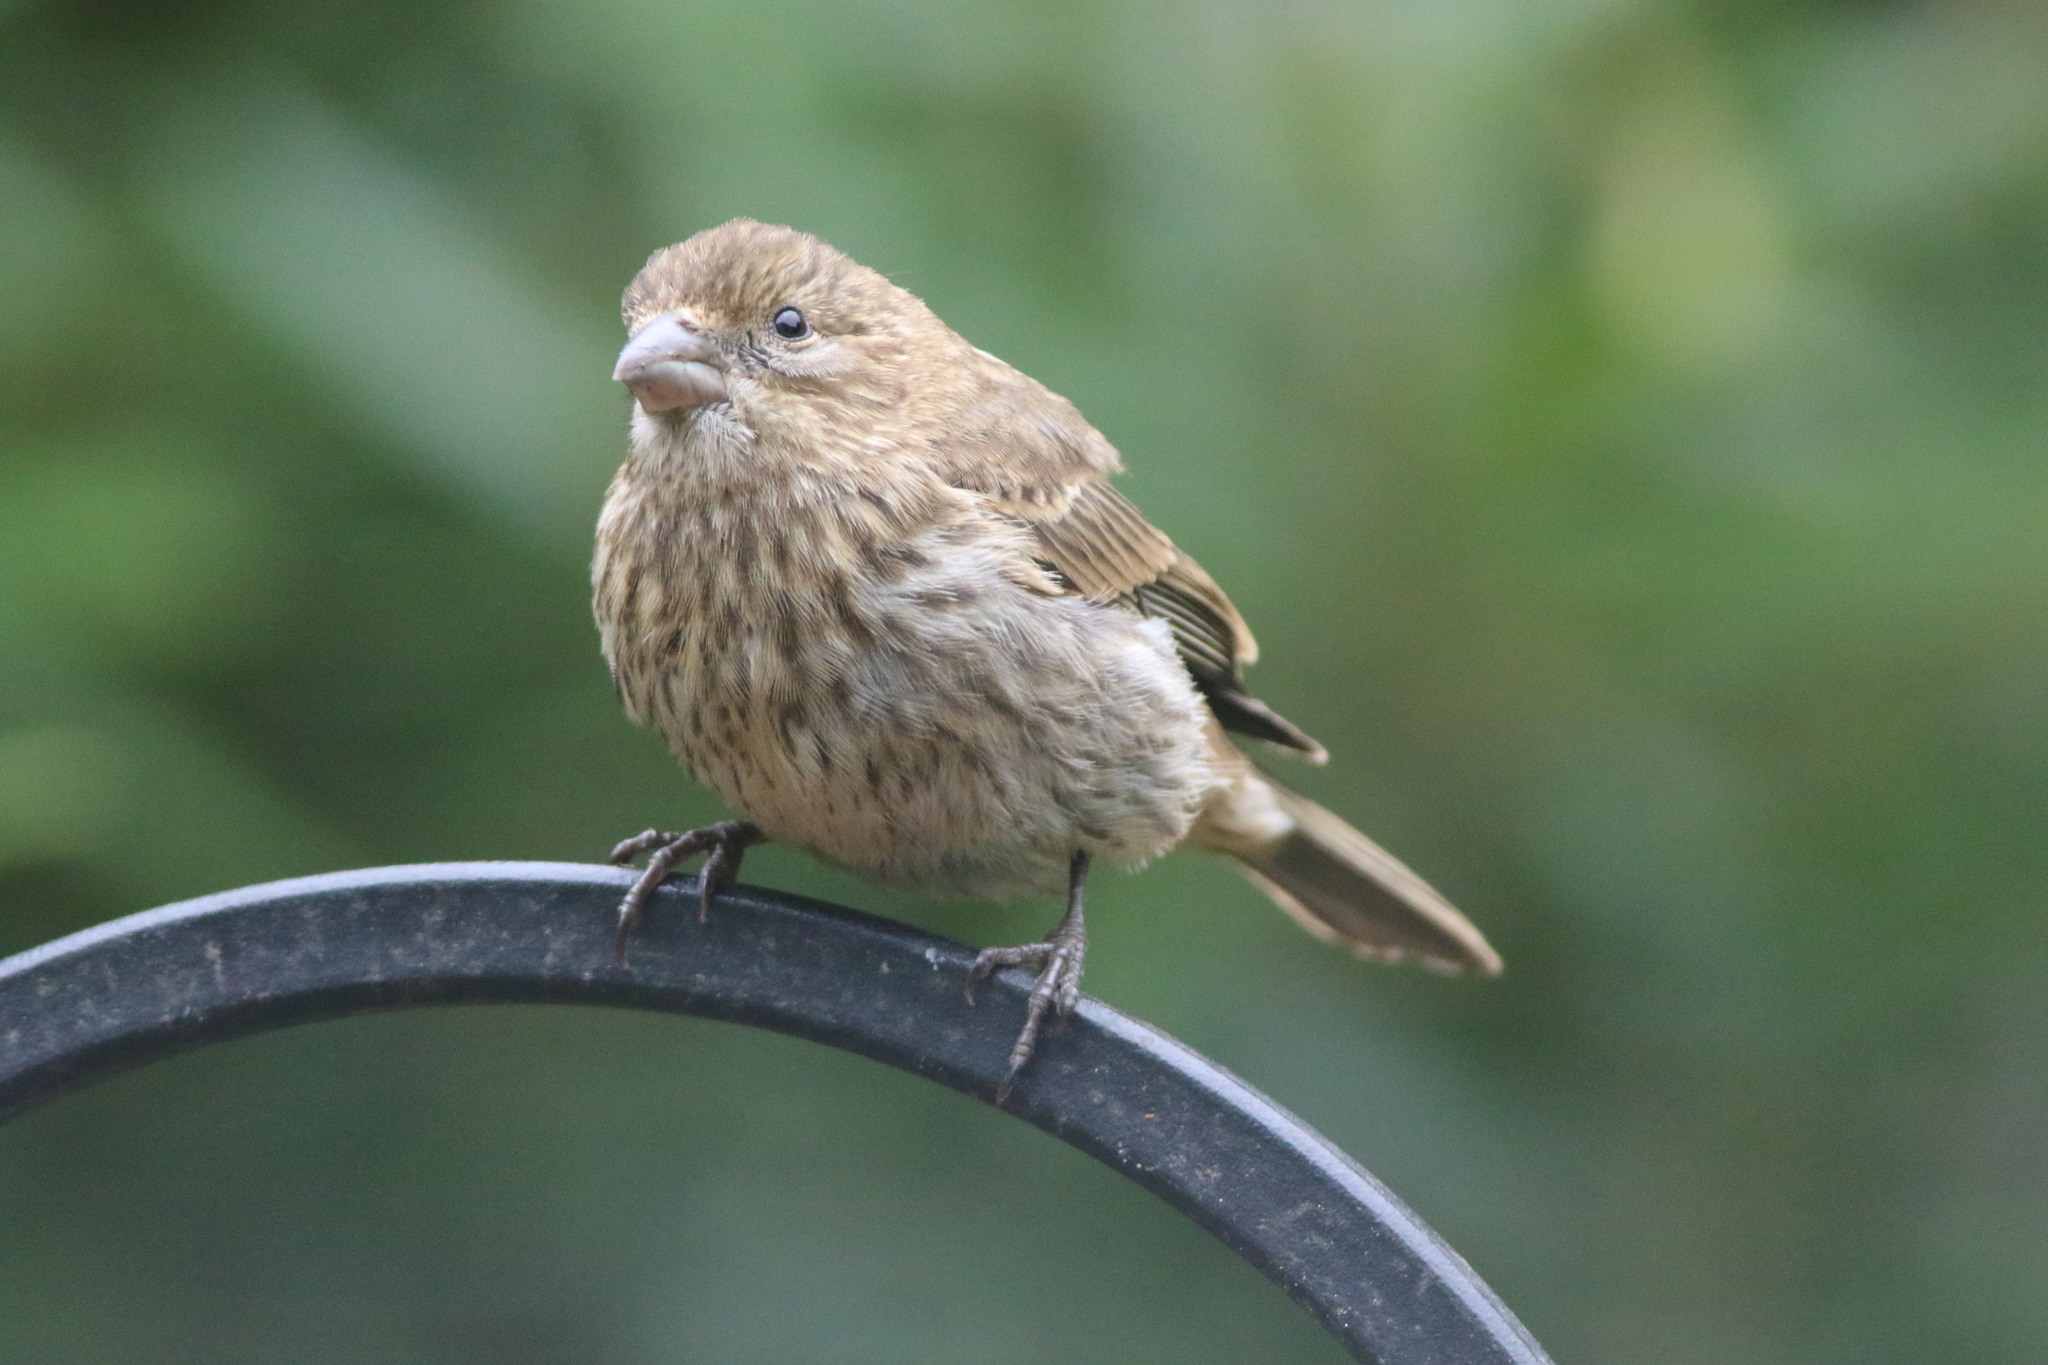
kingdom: Animalia
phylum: Chordata
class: Aves
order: Passeriformes
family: Fringillidae
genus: Haemorhous
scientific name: Haemorhous mexicanus
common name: House finch
